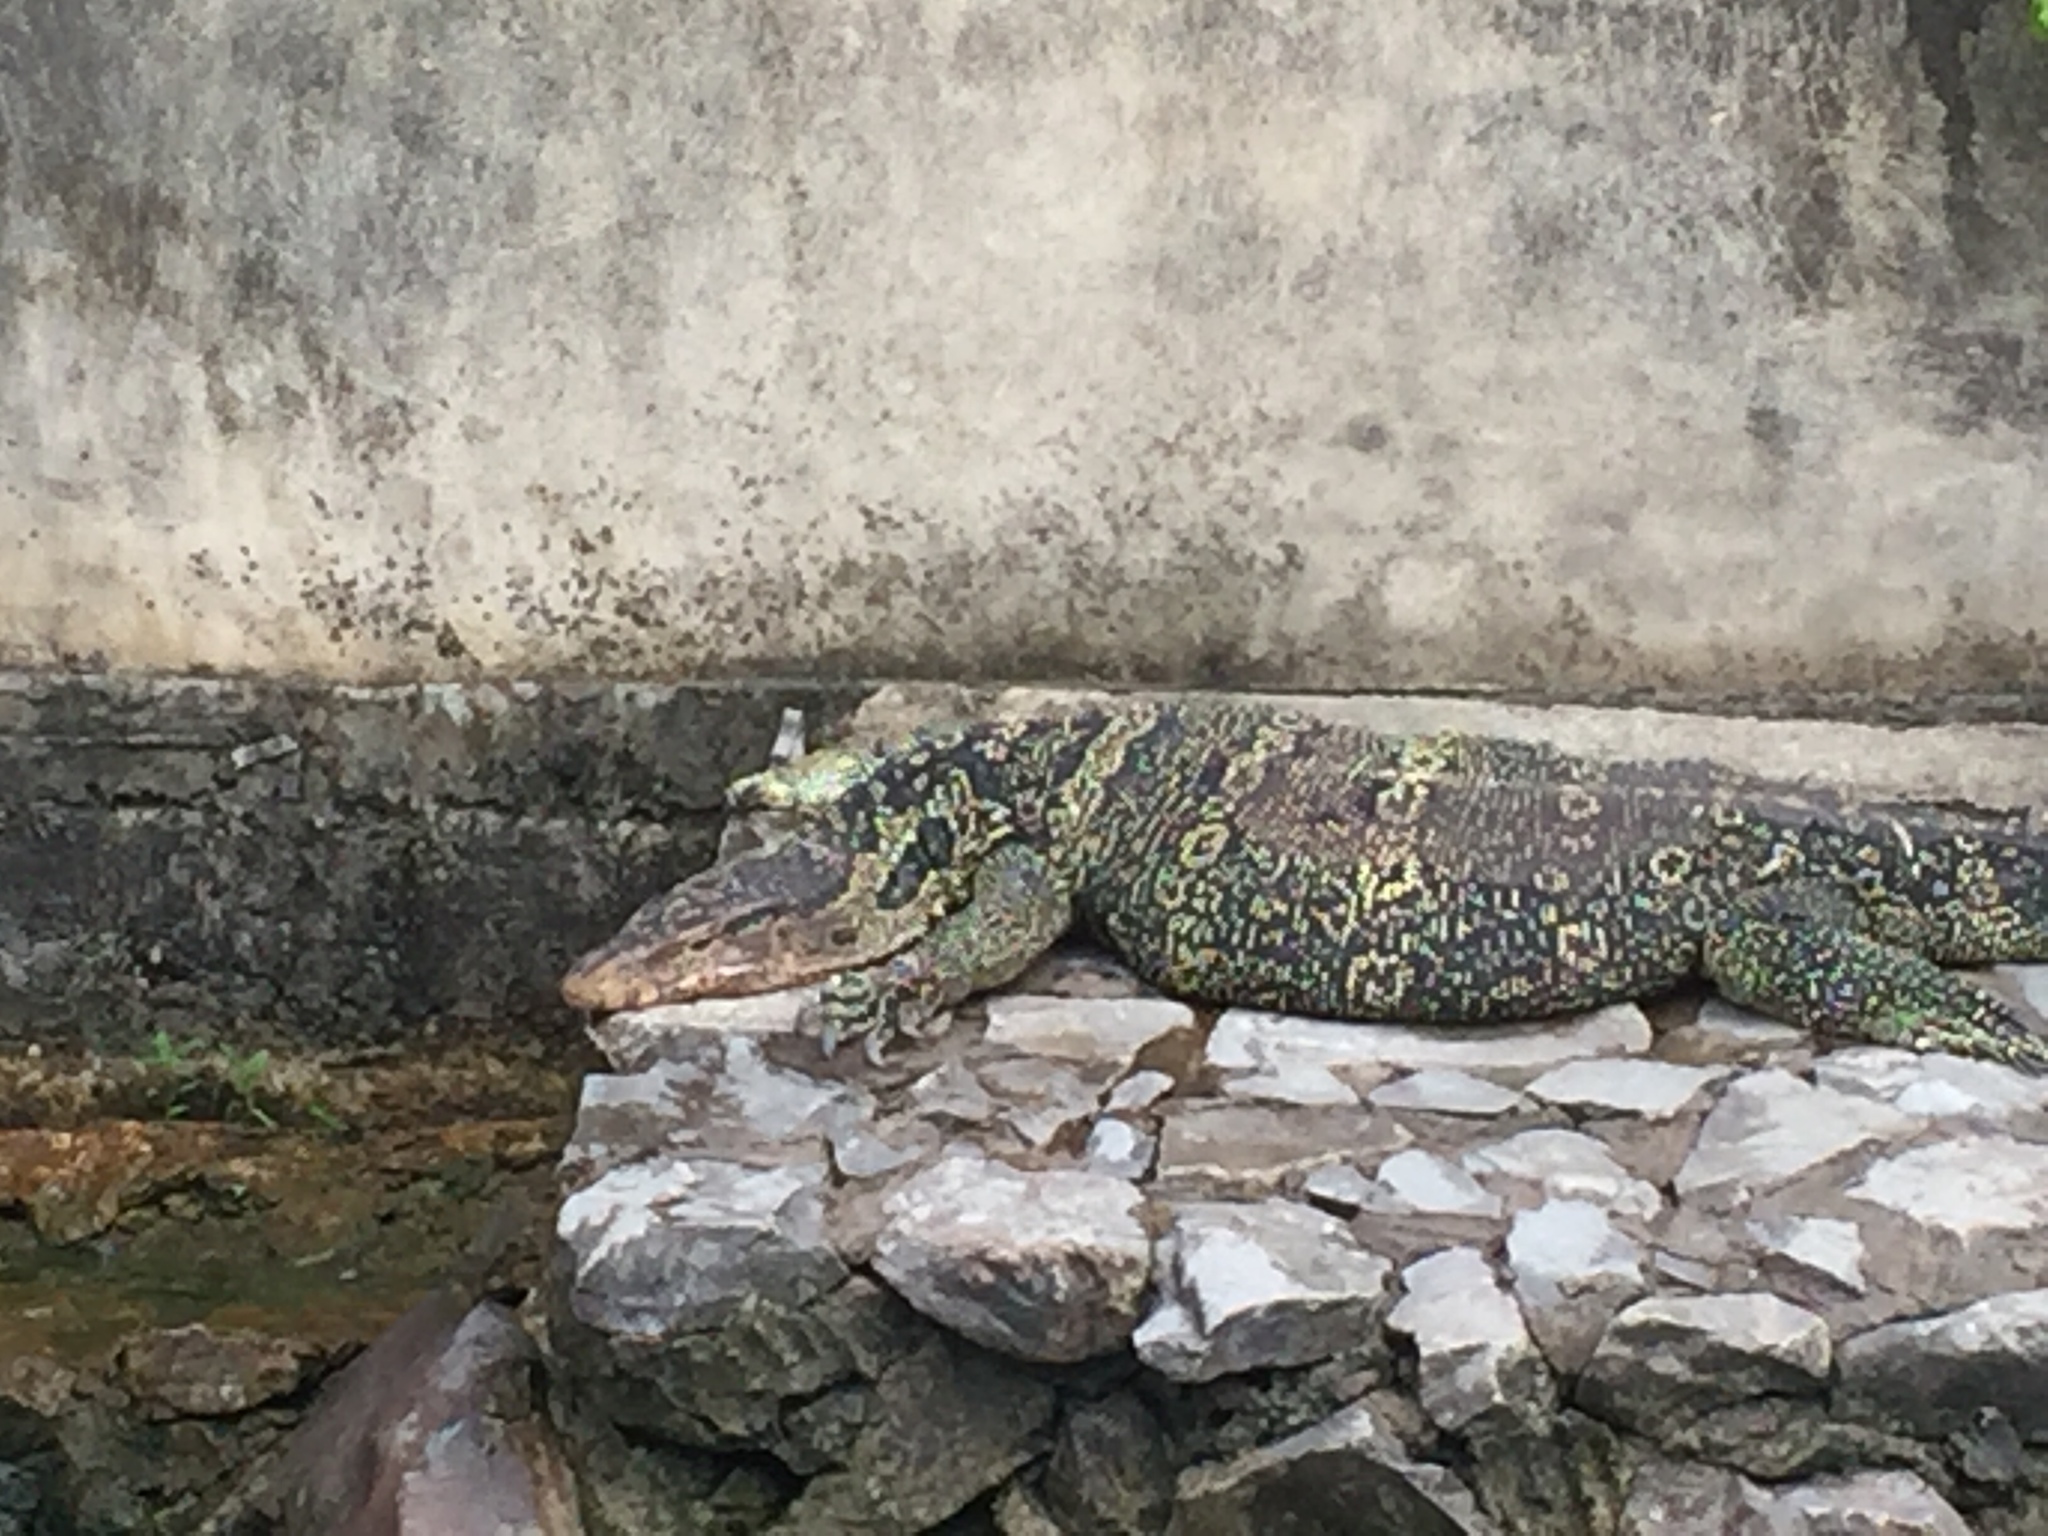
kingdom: Animalia
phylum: Chordata
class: Squamata
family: Varanidae
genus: Varanus
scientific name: Varanus salvator
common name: Common water monitor
